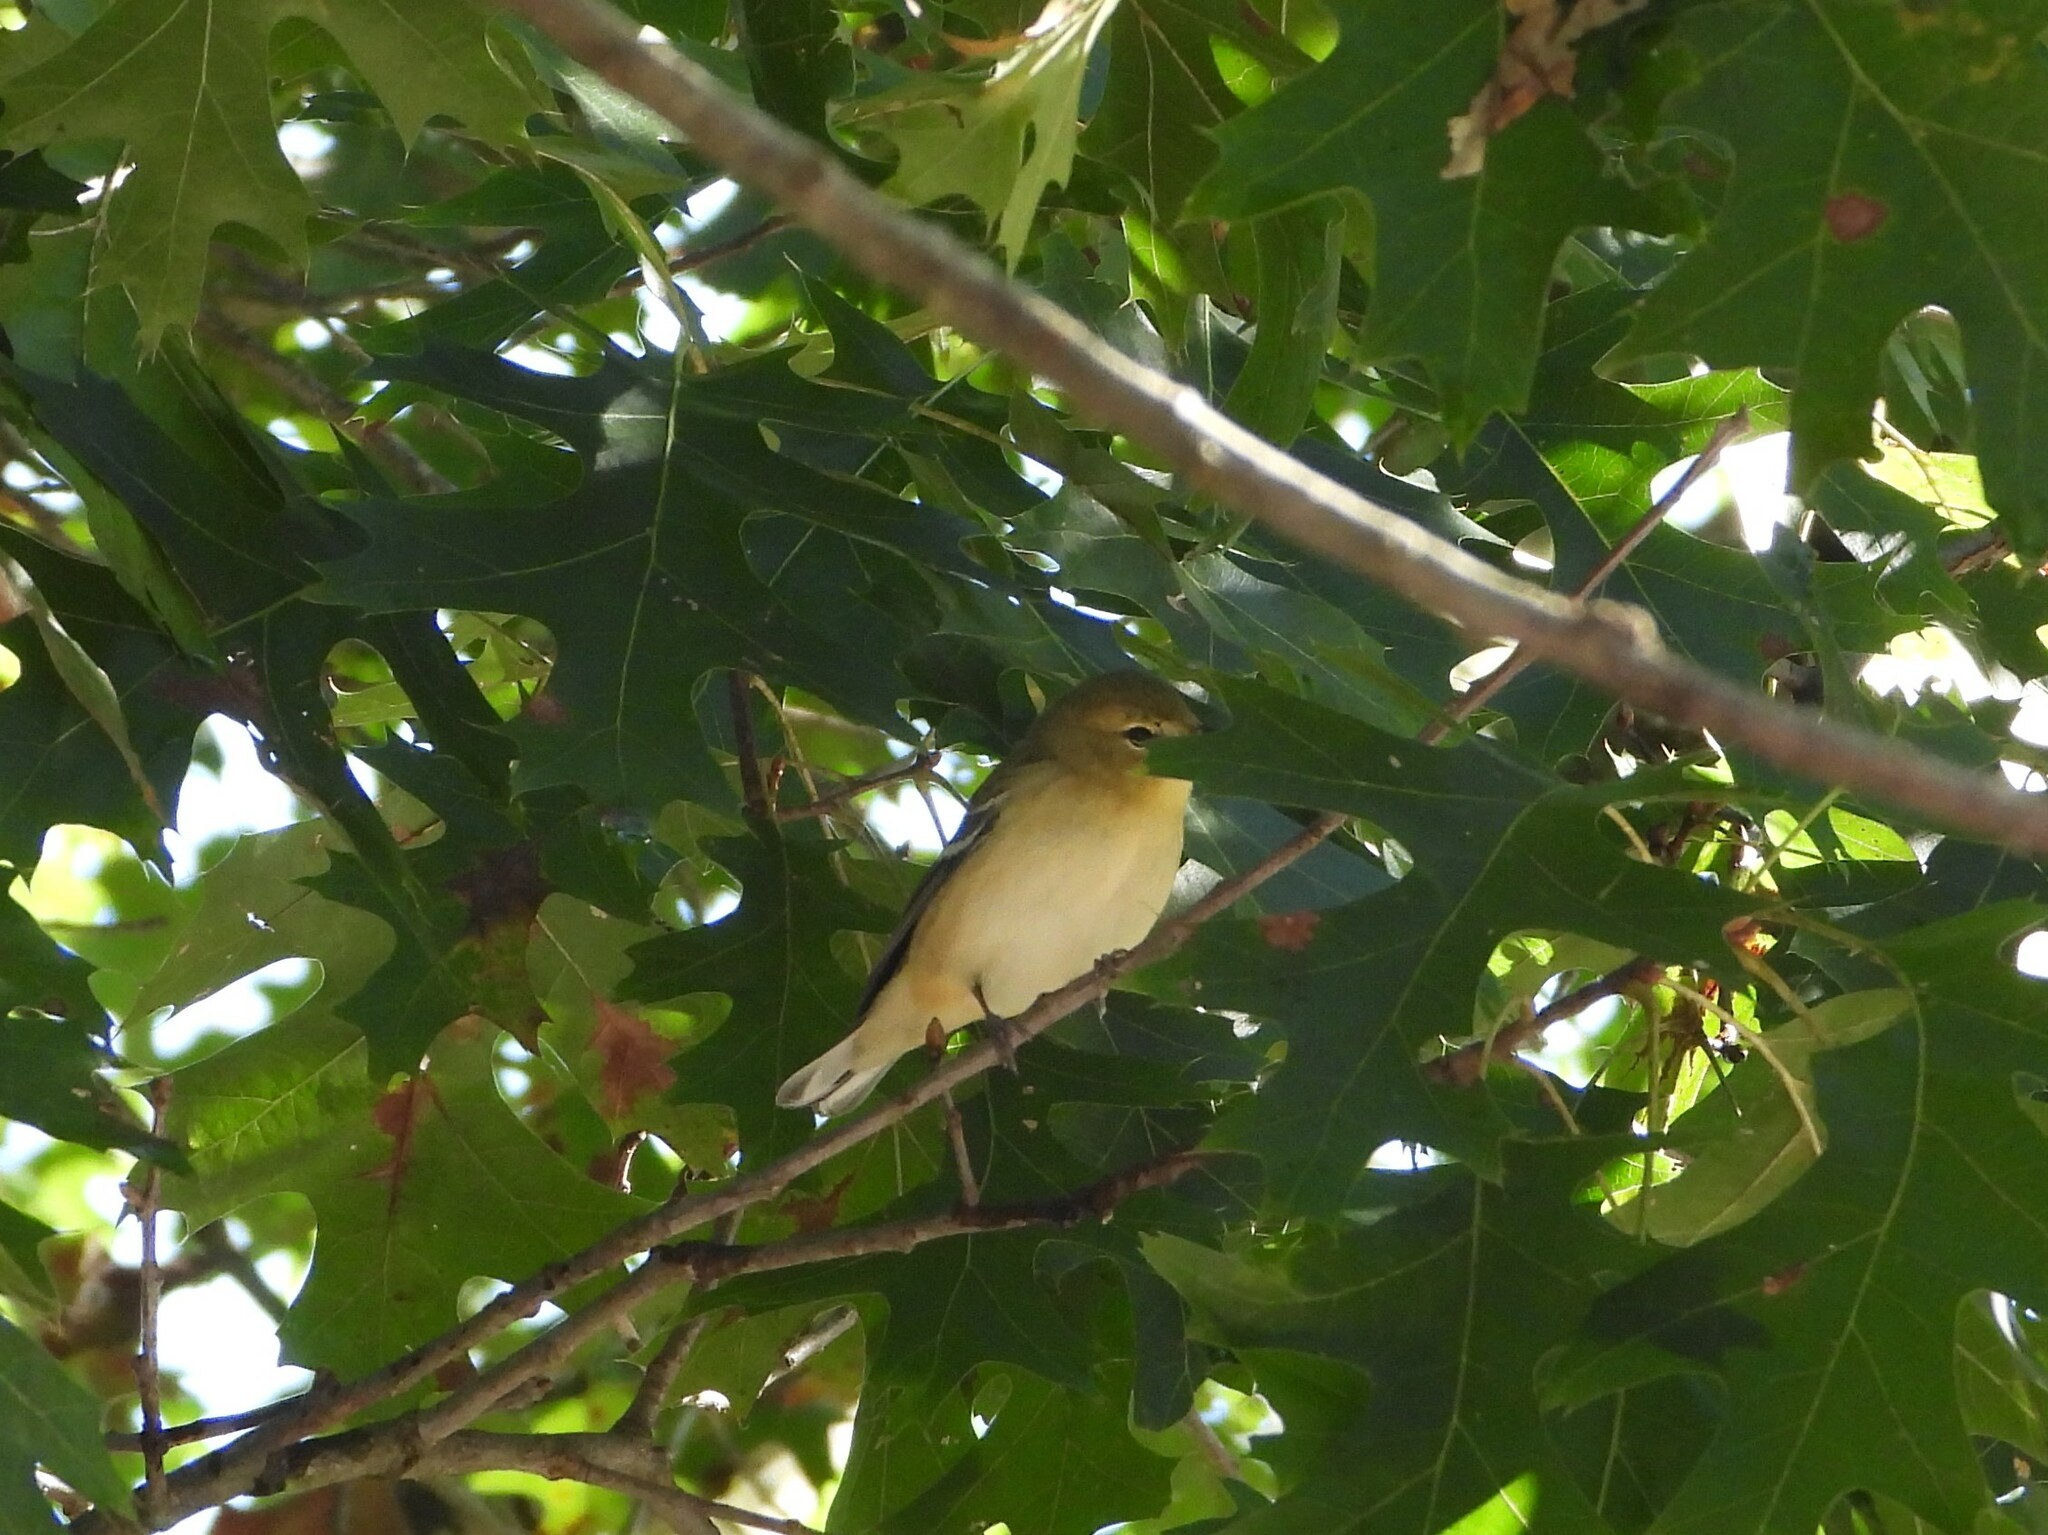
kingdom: Animalia
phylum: Chordata
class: Aves
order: Passeriformes
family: Parulidae
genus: Setophaga
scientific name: Setophaga castanea
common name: Bay-breasted warbler
